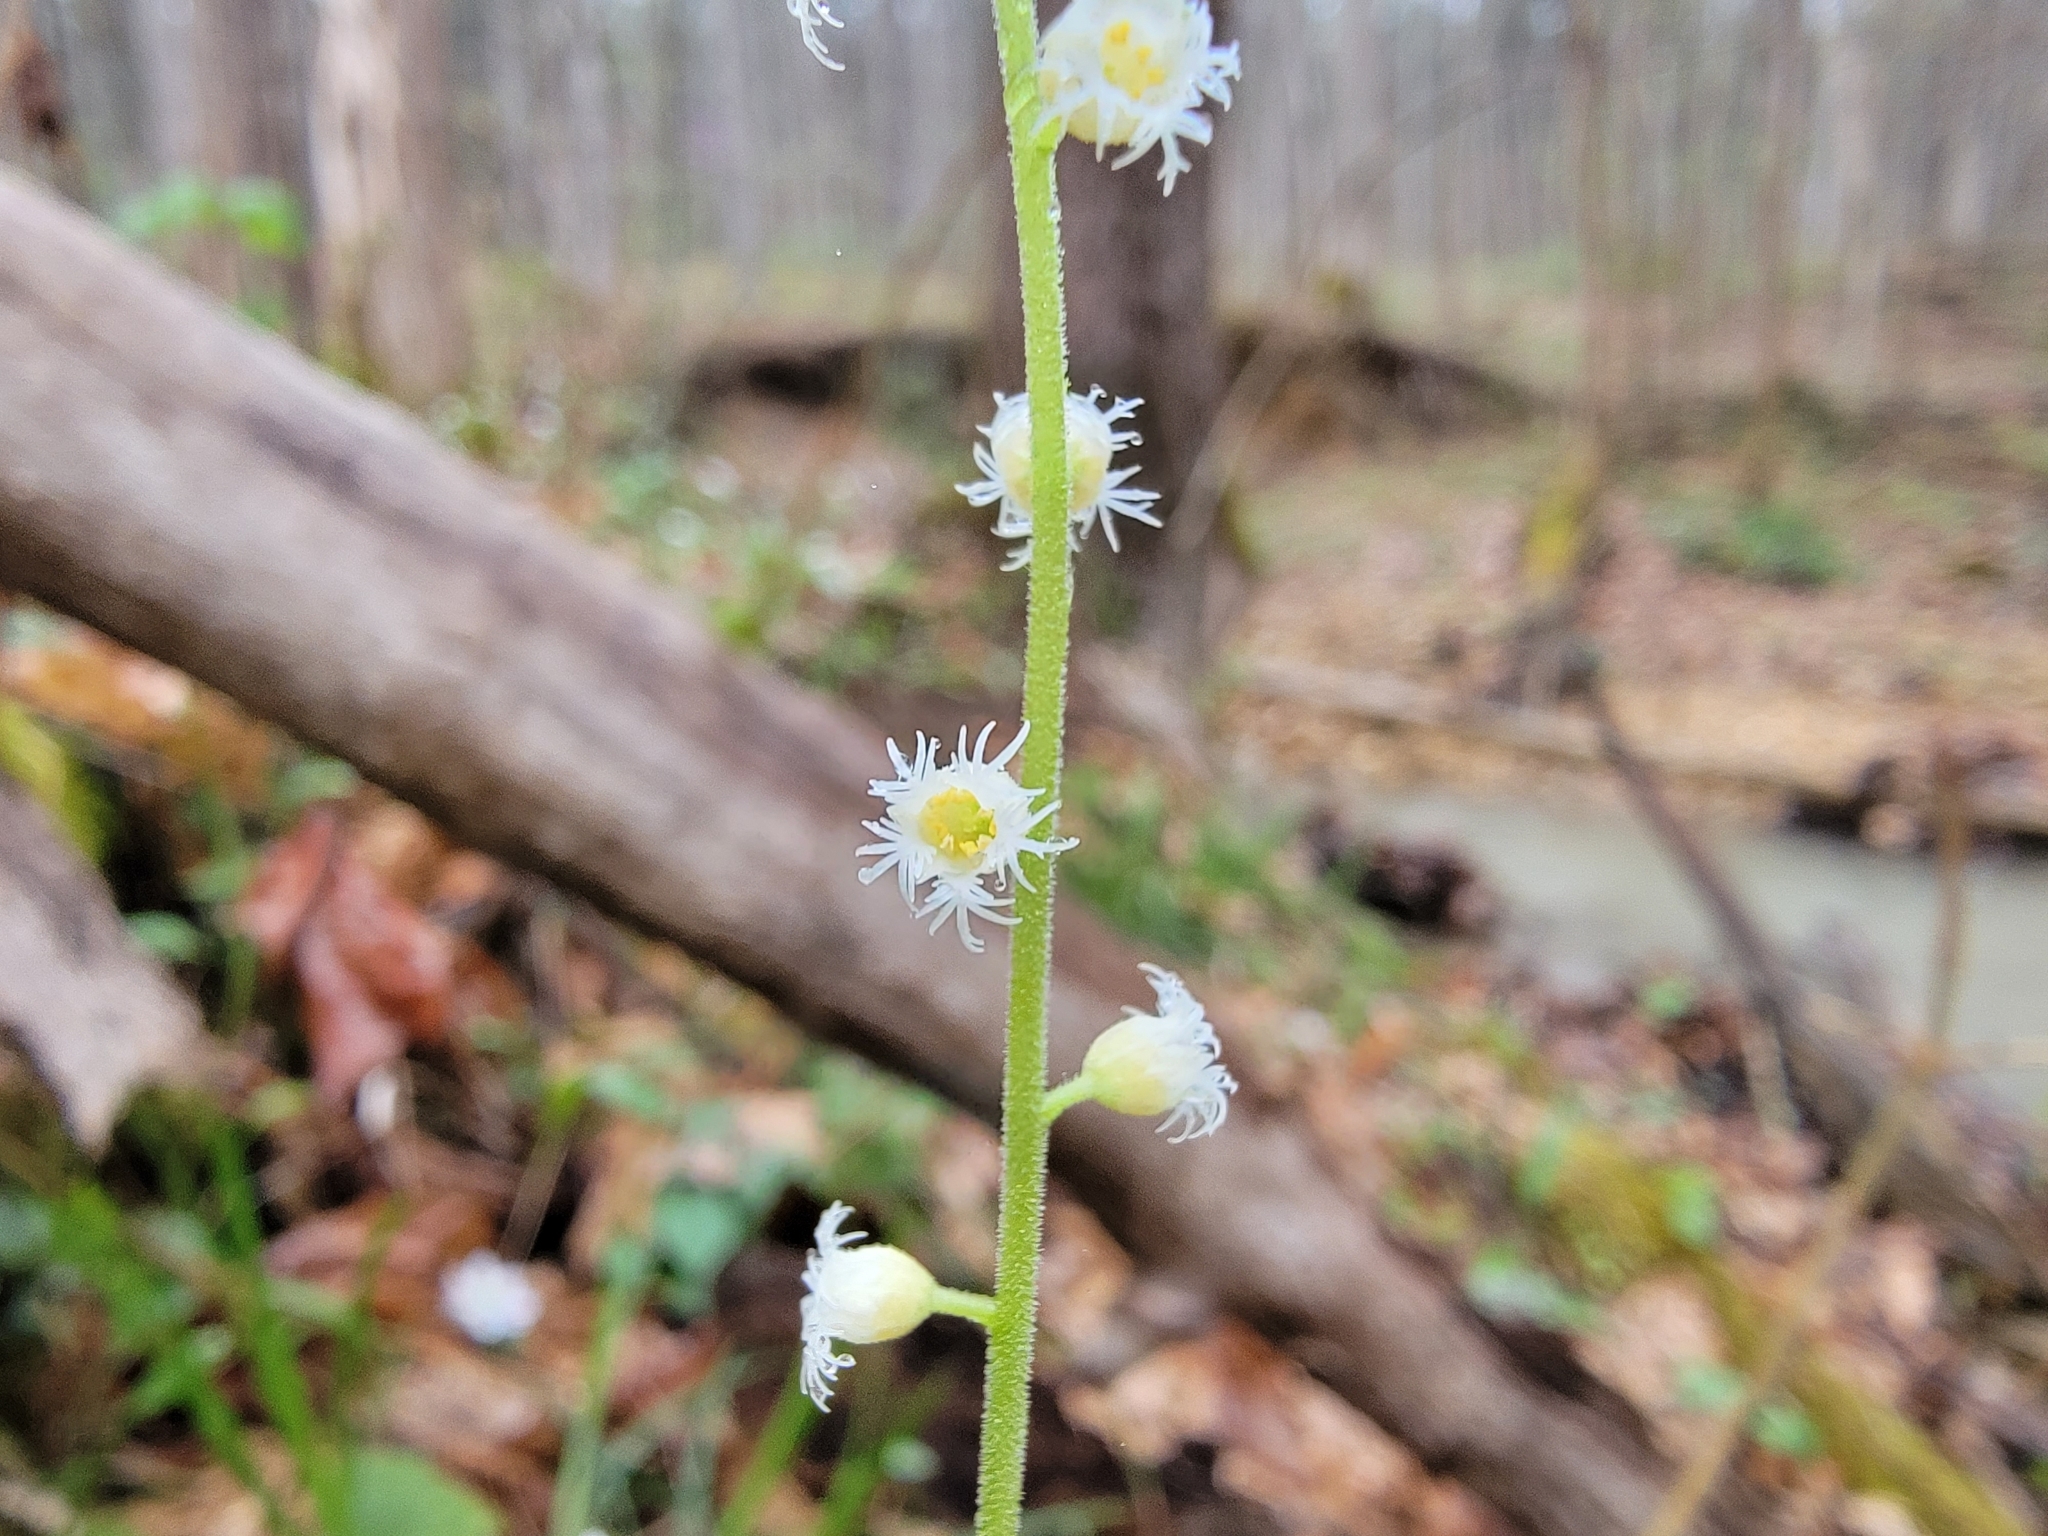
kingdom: Plantae
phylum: Tracheophyta
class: Magnoliopsida
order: Saxifragales
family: Saxifragaceae
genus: Mitella
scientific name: Mitella diphylla
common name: Coolwort
